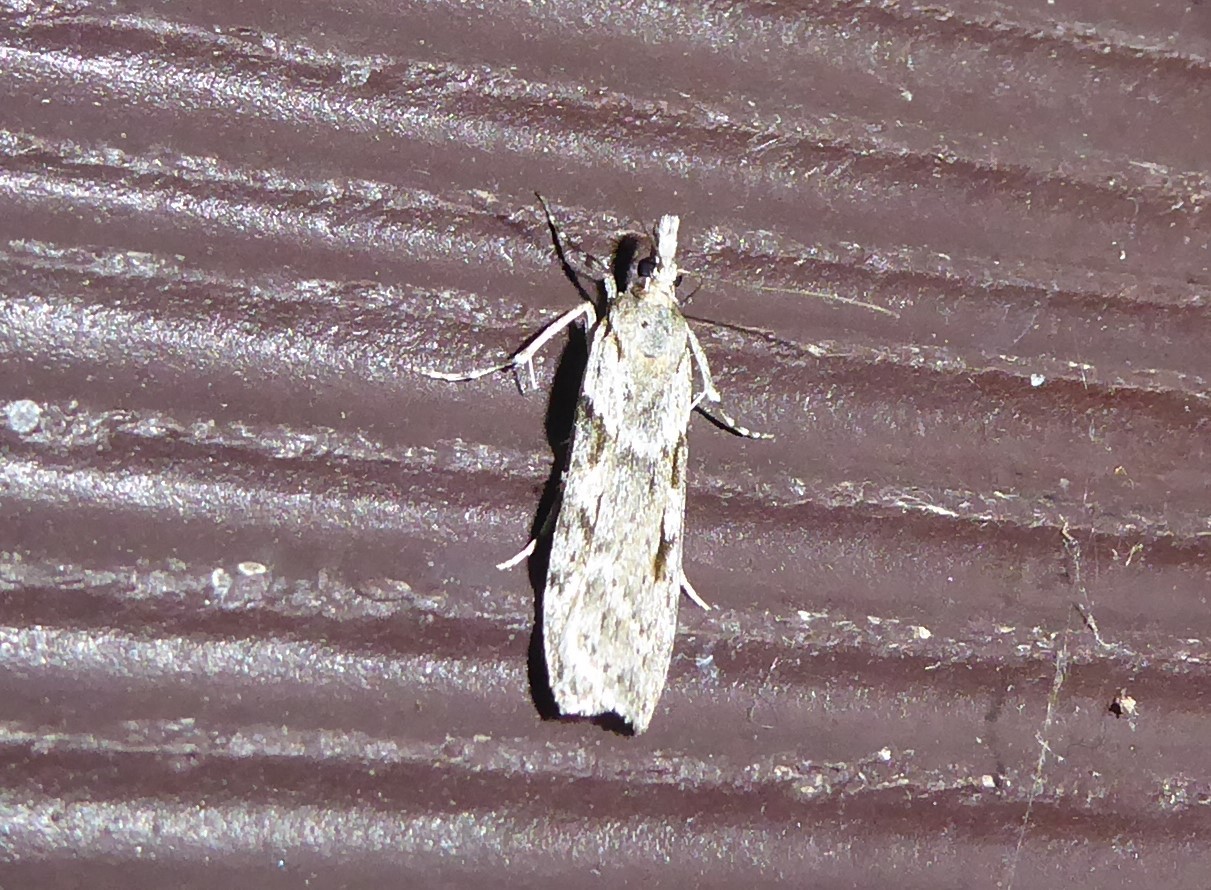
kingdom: Animalia
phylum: Arthropoda
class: Insecta
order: Lepidoptera
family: Crambidae
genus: Scoparia
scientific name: Scoparia halopis
